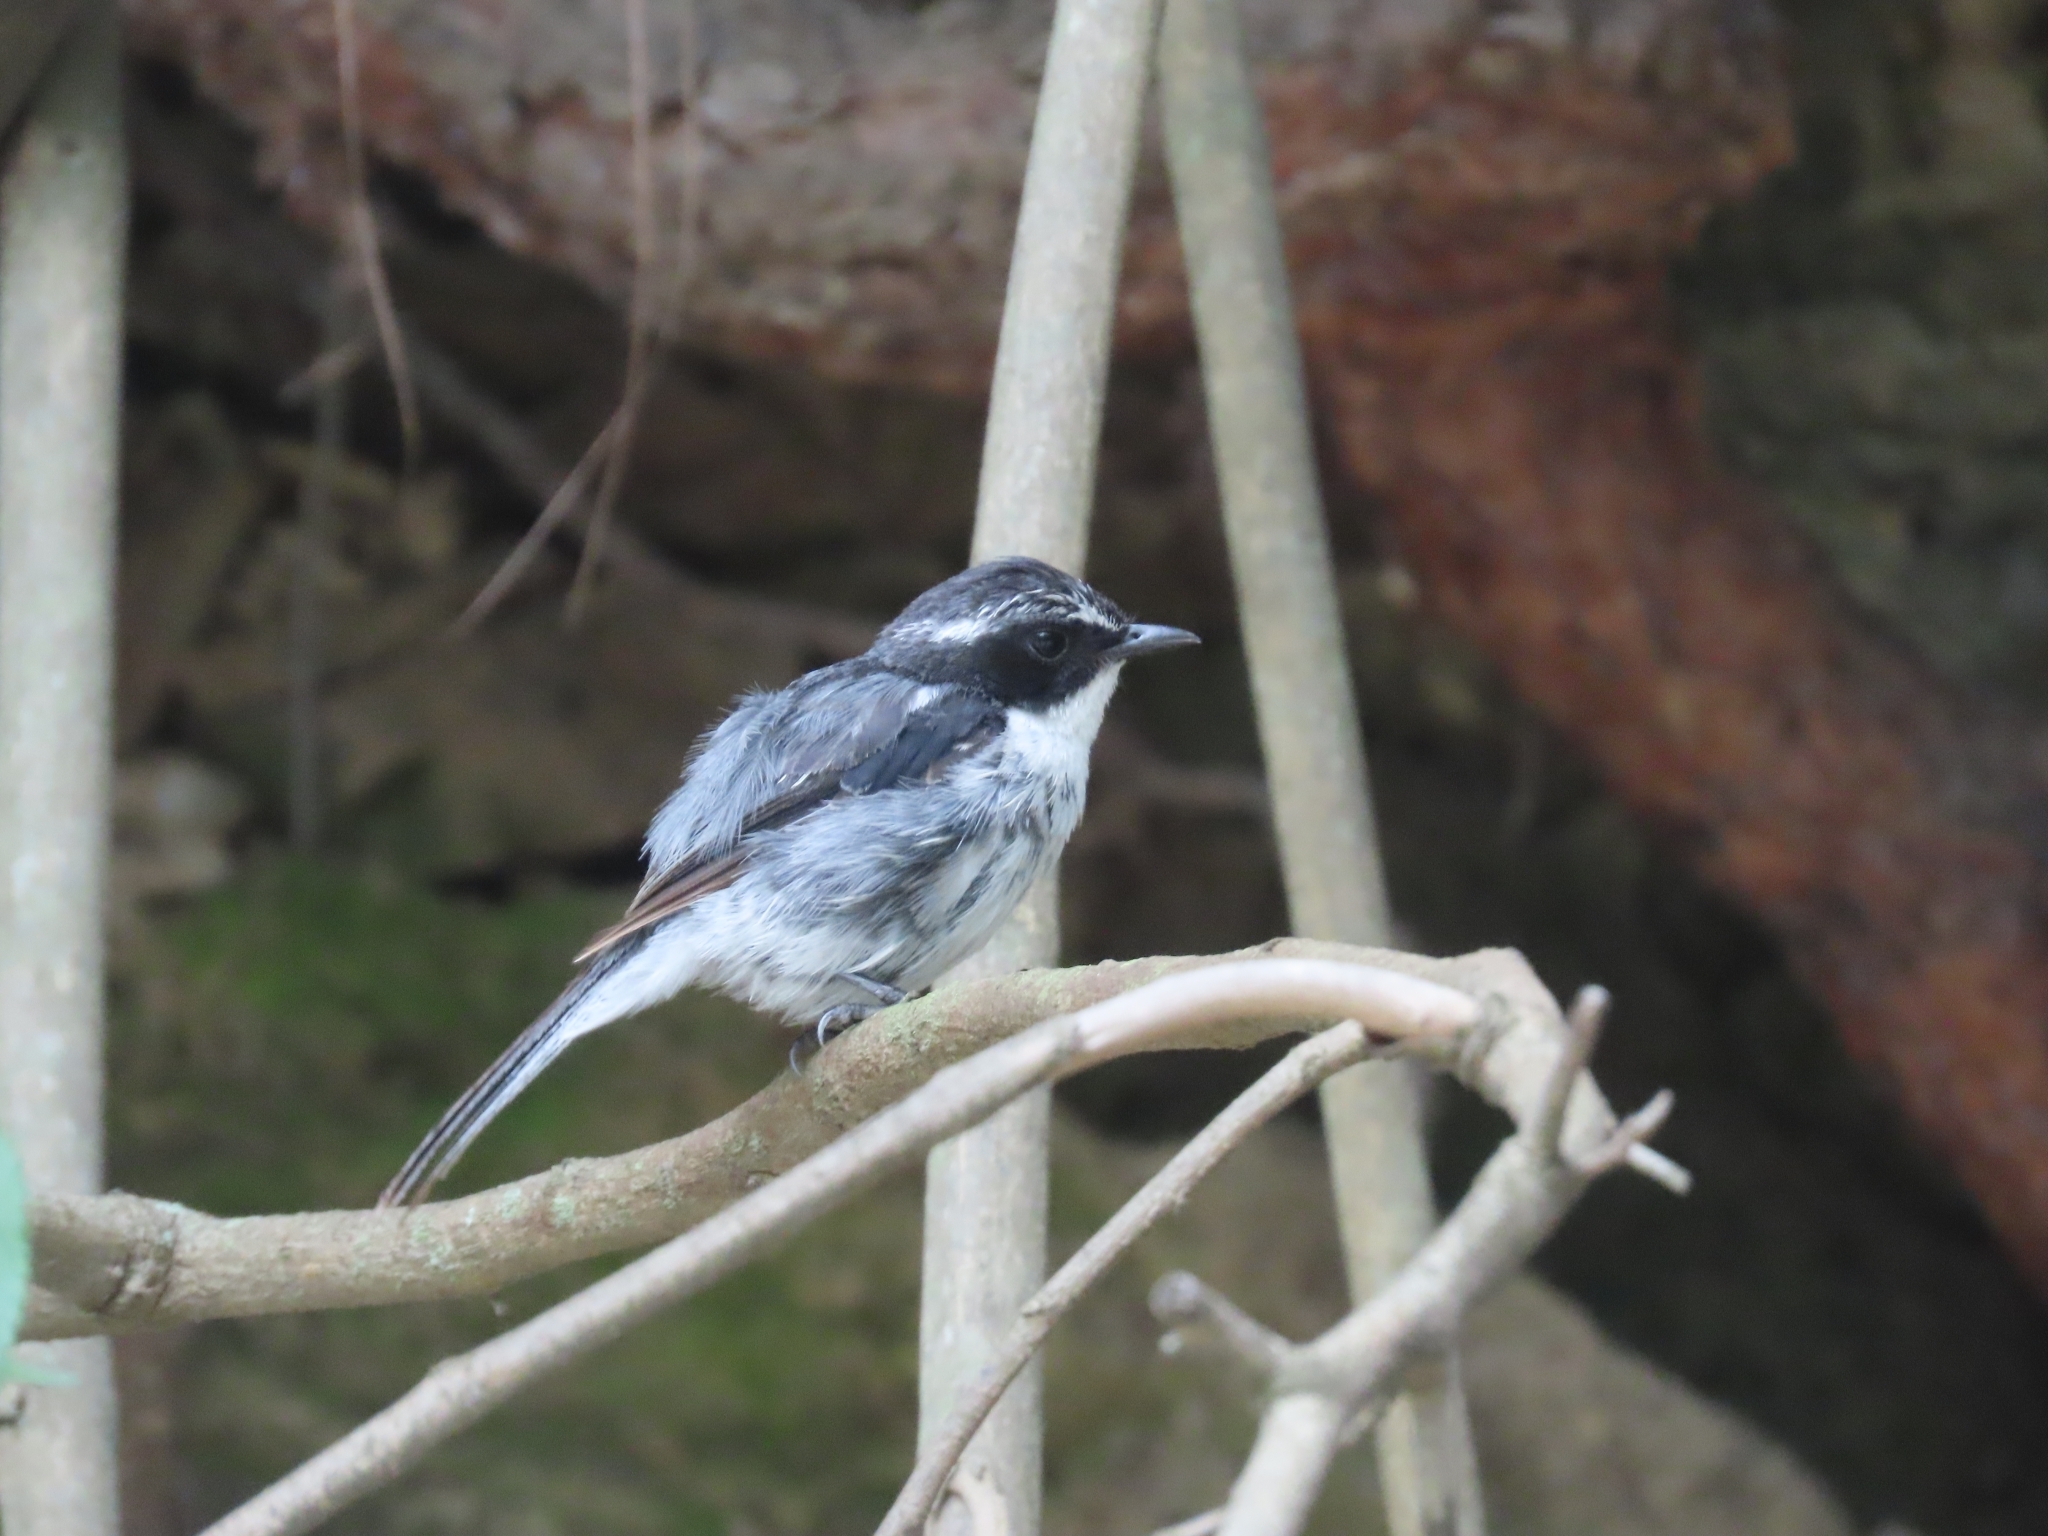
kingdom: Animalia
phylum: Chordata
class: Aves
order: Passeriformes
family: Muscicapidae
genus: Saxicola
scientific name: Saxicola ferreus
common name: Grey bush chat
